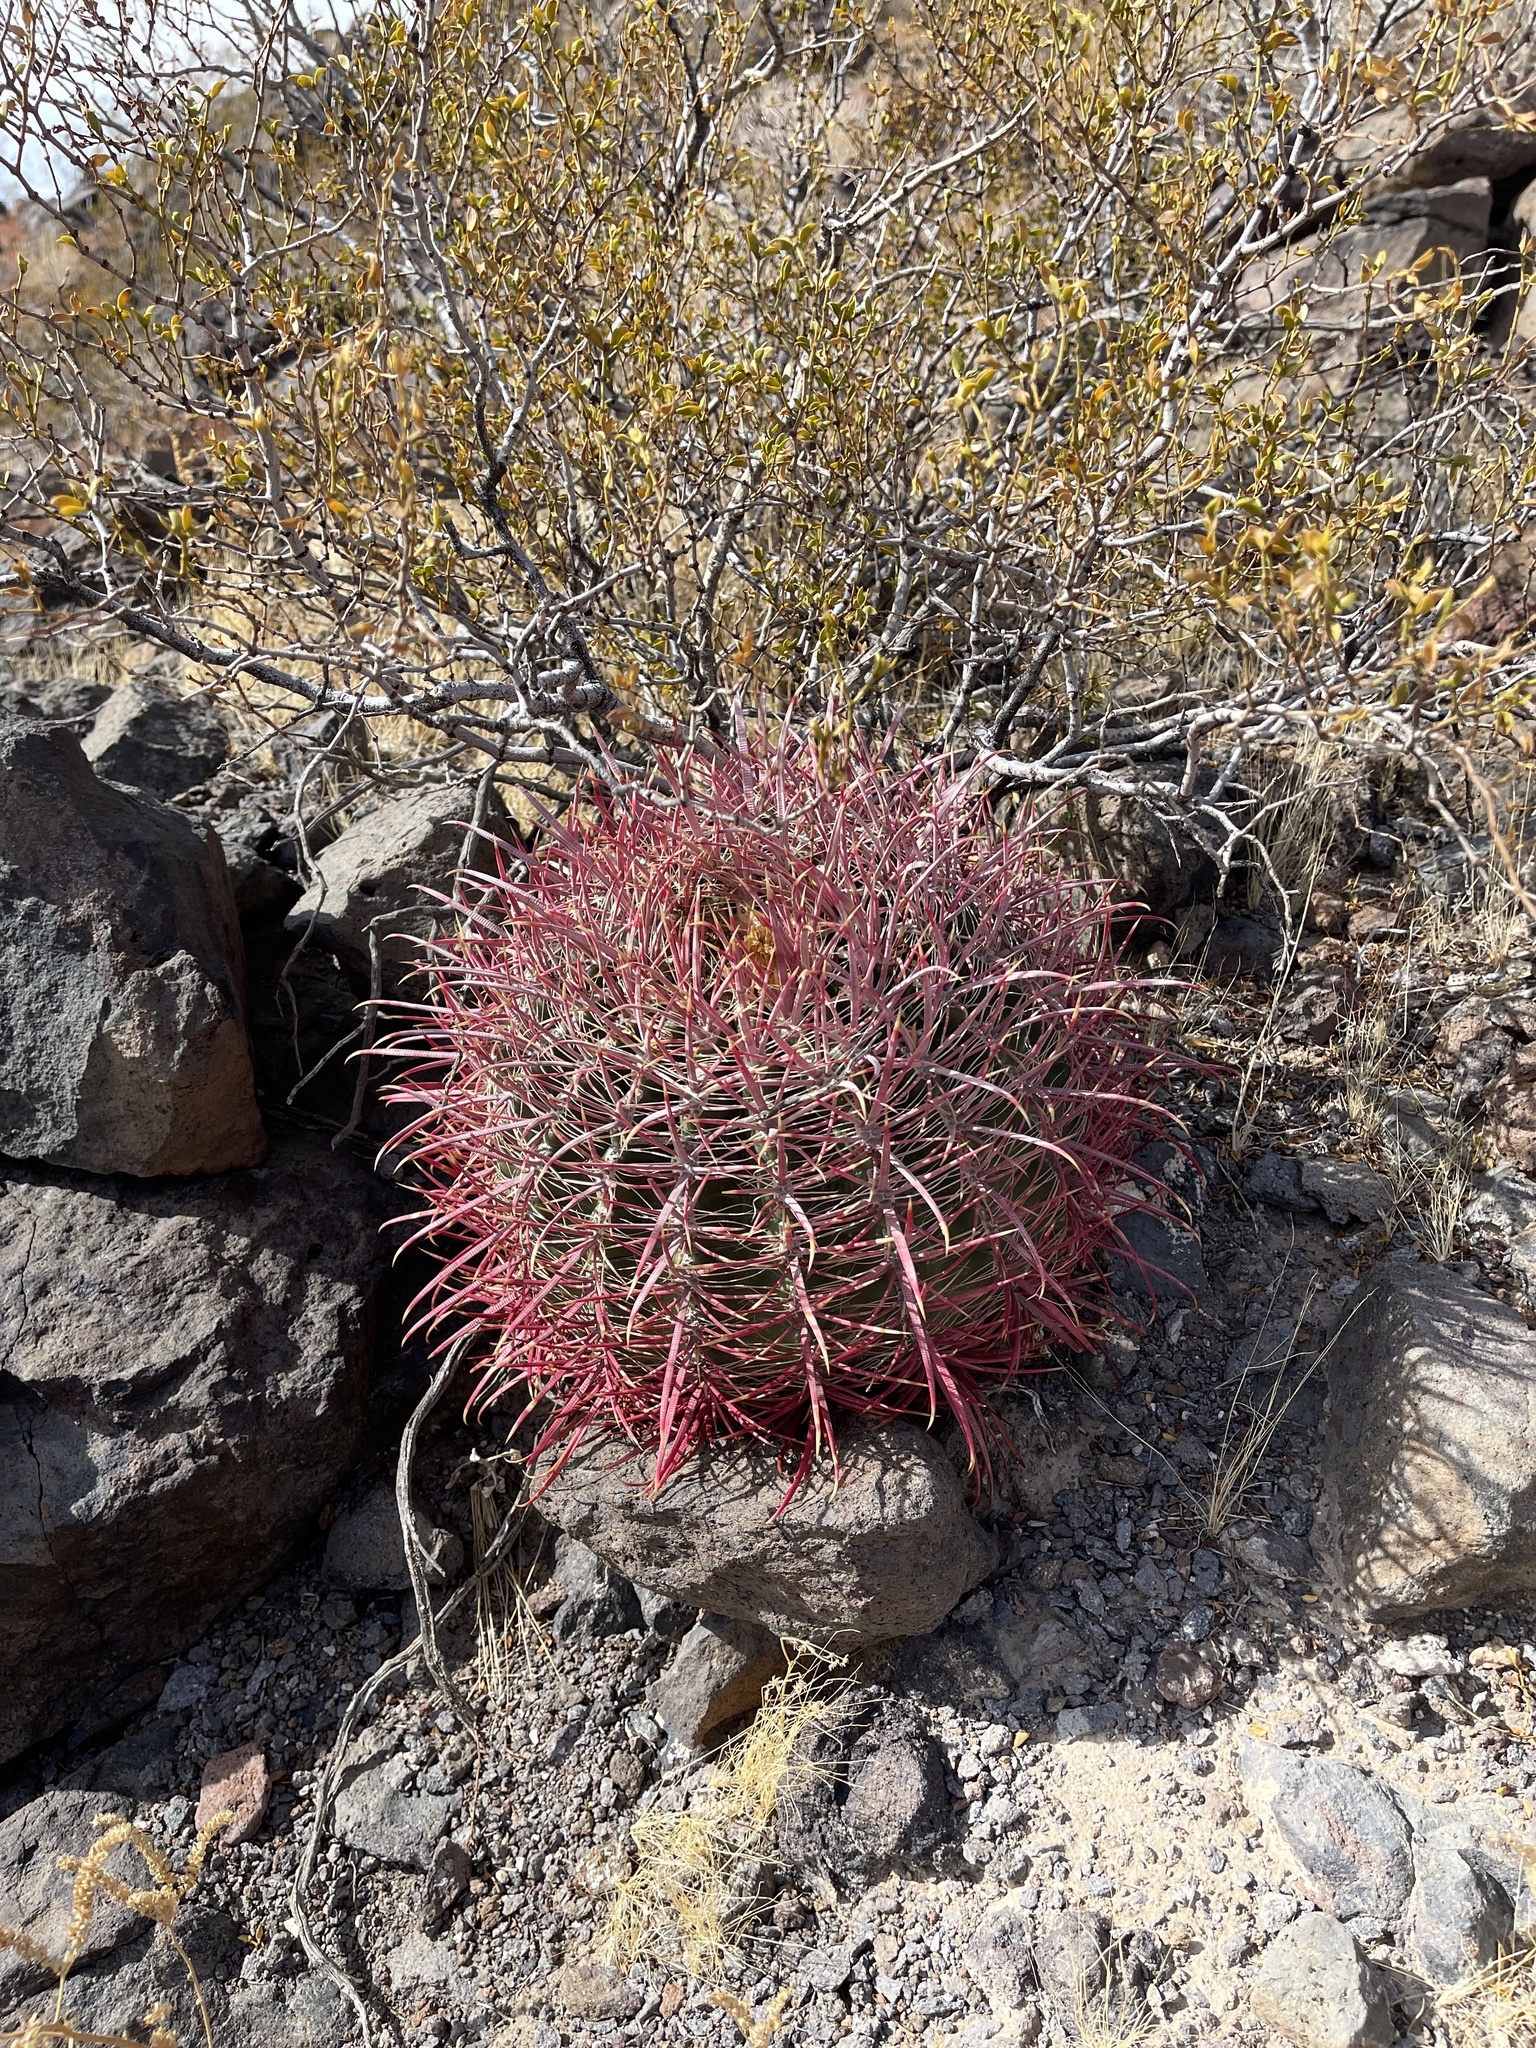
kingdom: Plantae
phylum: Tracheophyta
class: Magnoliopsida
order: Caryophyllales
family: Cactaceae
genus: Ferocactus
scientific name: Ferocactus cylindraceus
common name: California barrel cactus
